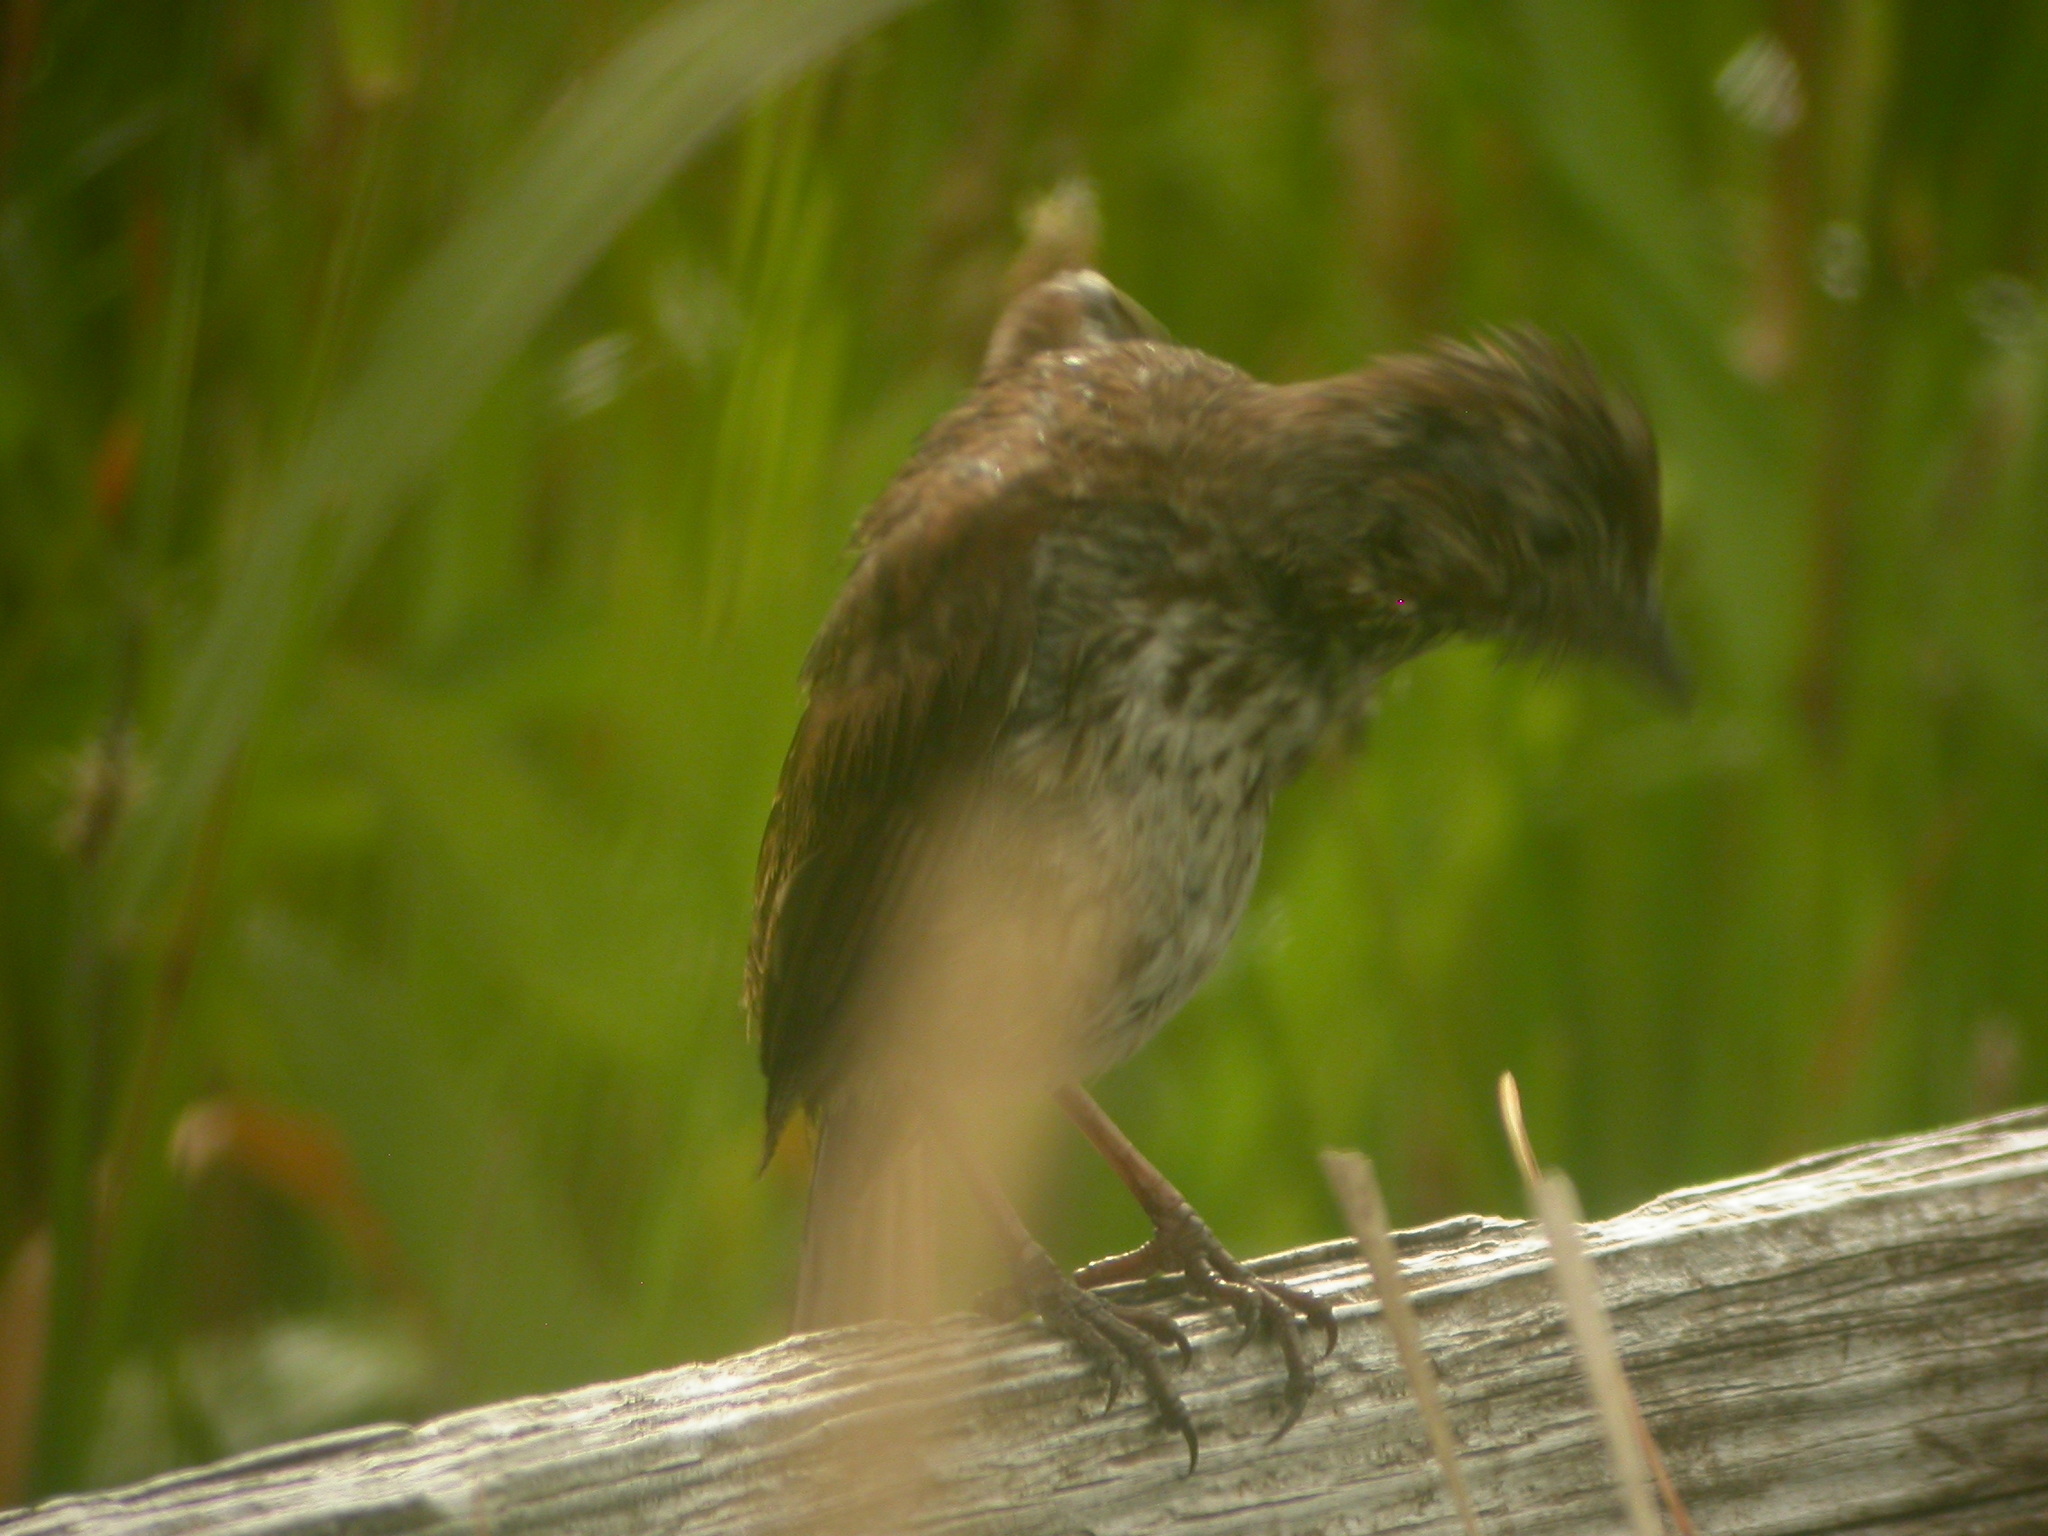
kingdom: Animalia
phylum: Chordata
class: Aves
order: Passeriformes
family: Passerellidae
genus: Melospiza
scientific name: Melospiza melodia
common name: Song sparrow
